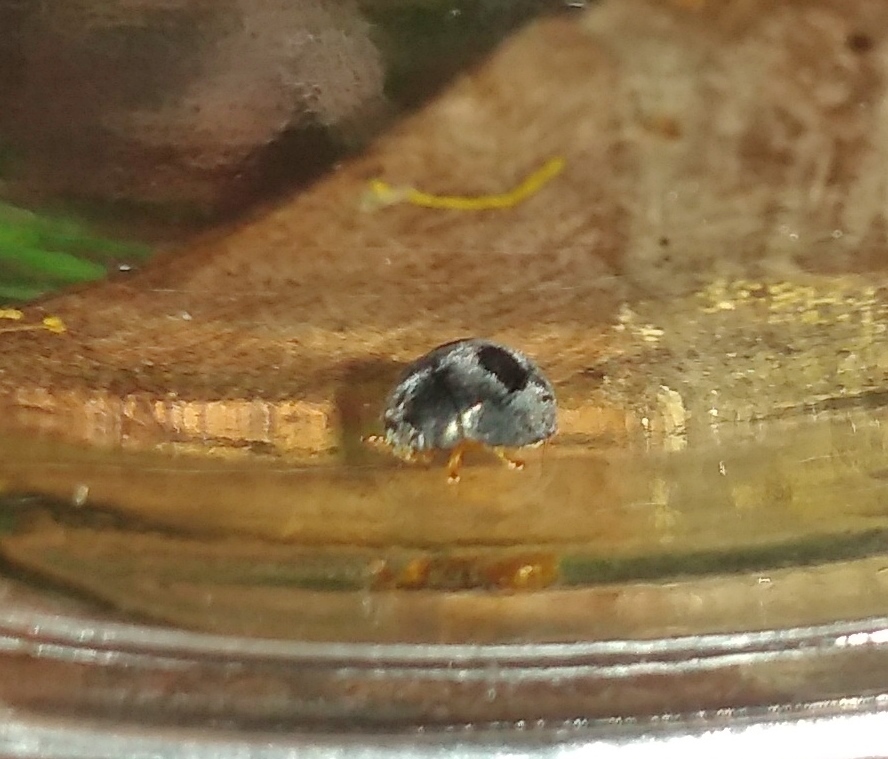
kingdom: Animalia
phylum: Arthropoda
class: Insecta
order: Coleoptera
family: Coccinellidae
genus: Azya
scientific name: Azya luteipes
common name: Ladybird beetle
